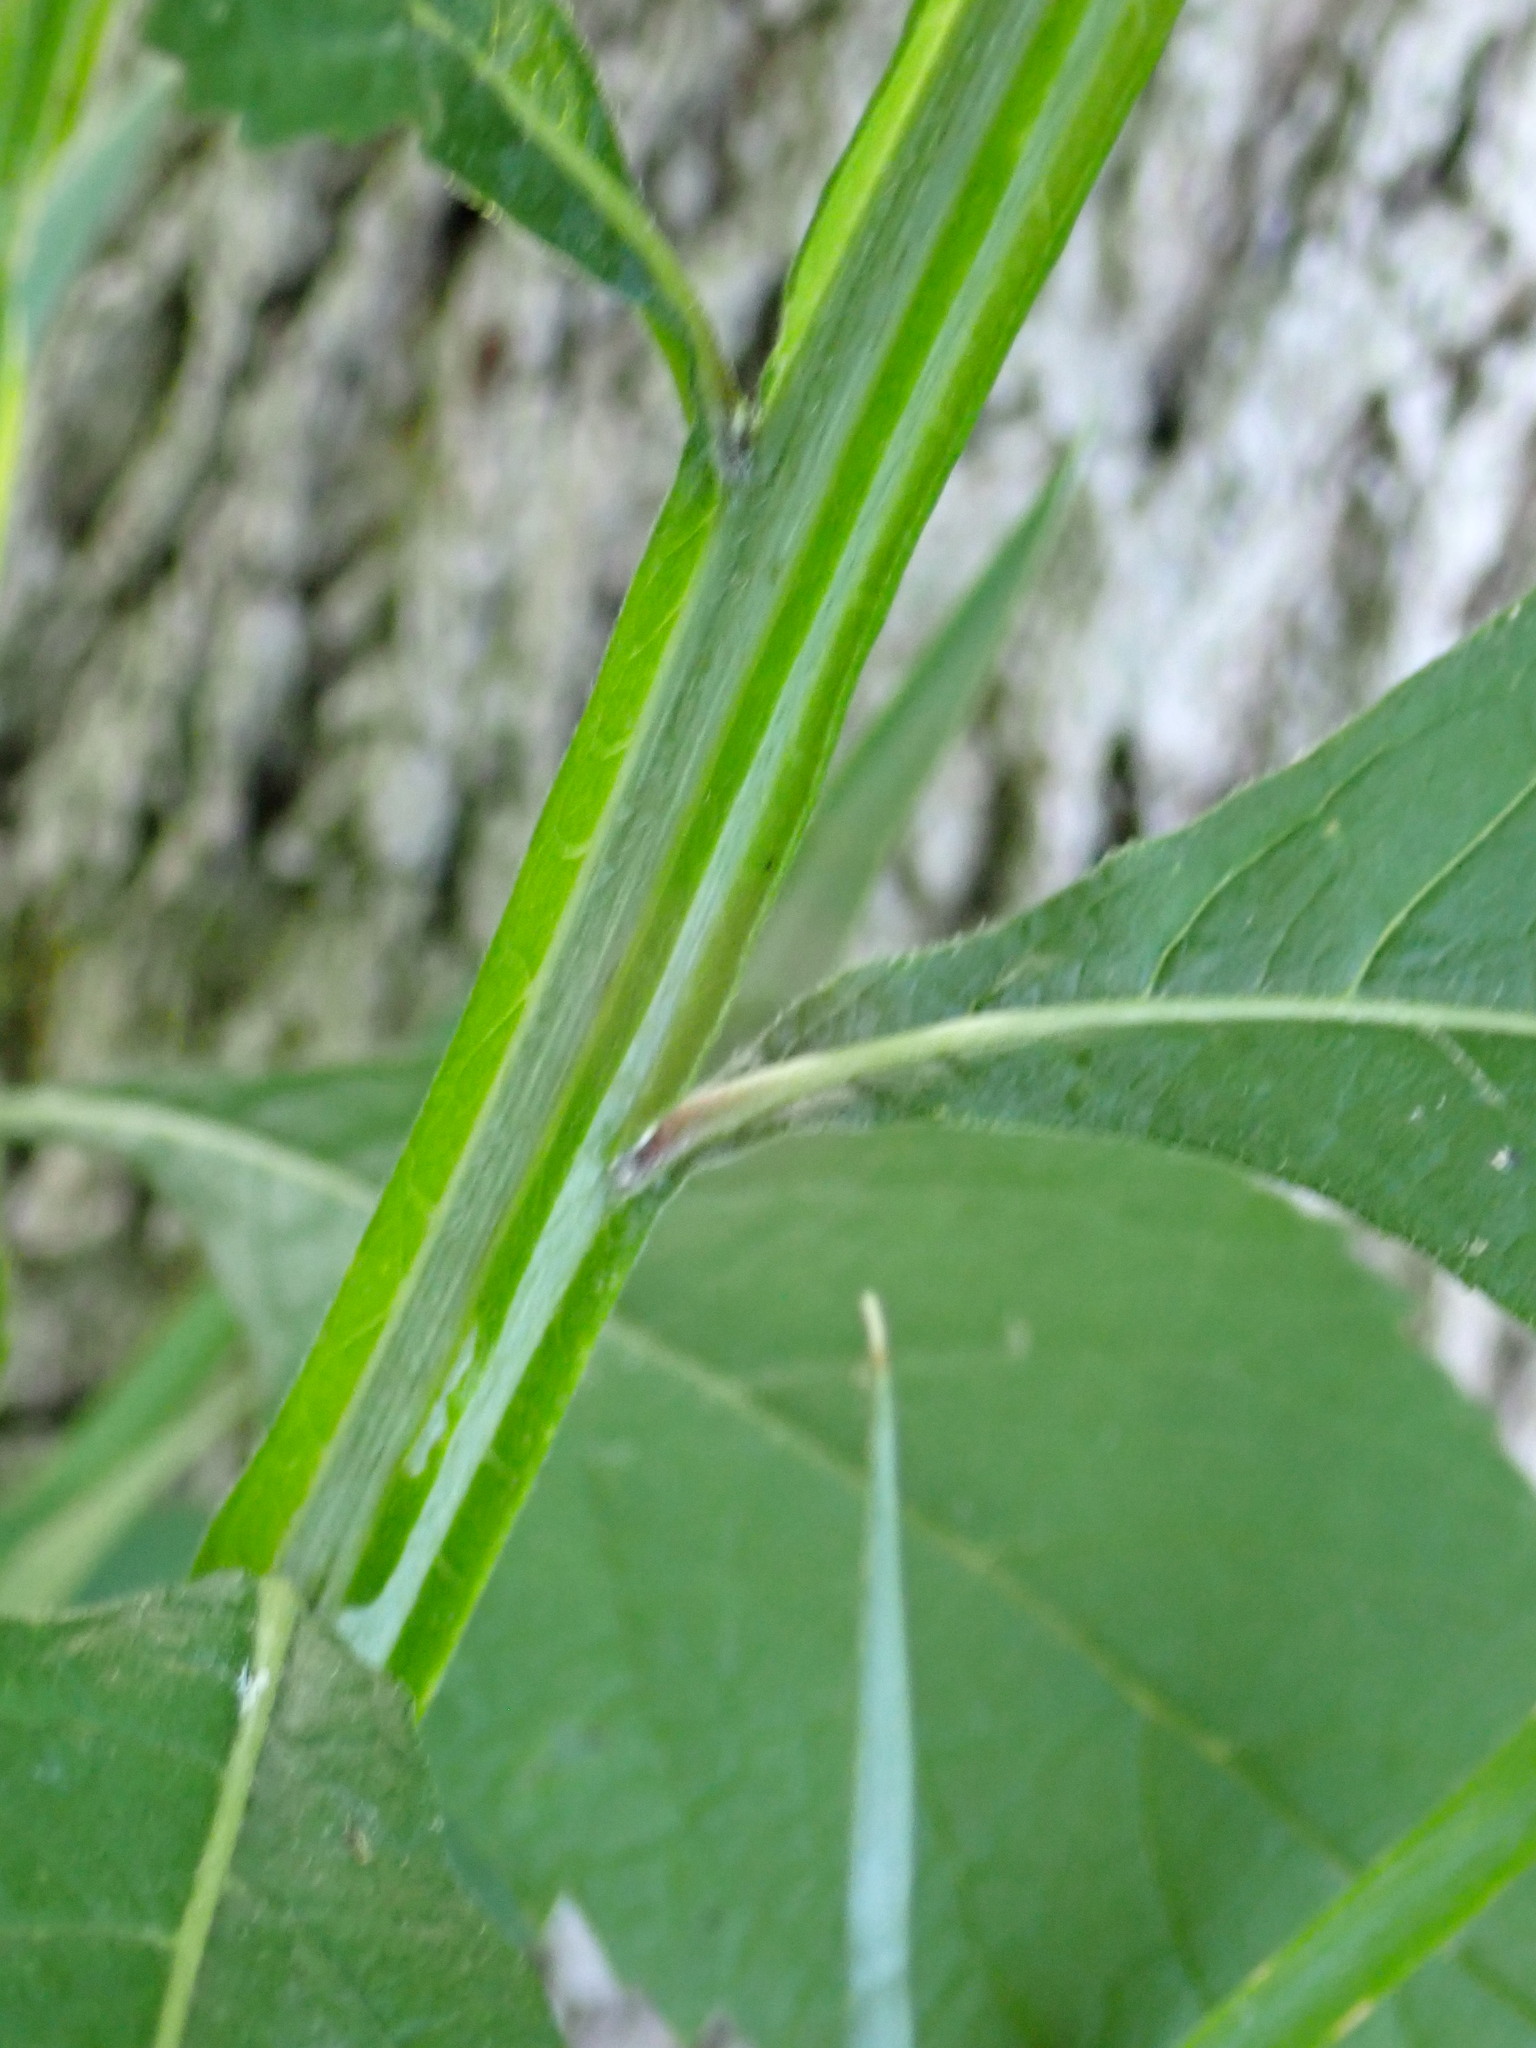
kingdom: Plantae
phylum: Tracheophyta
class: Magnoliopsida
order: Asterales
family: Asteraceae
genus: Verbesina
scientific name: Verbesina alternifolia
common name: Wingstem
